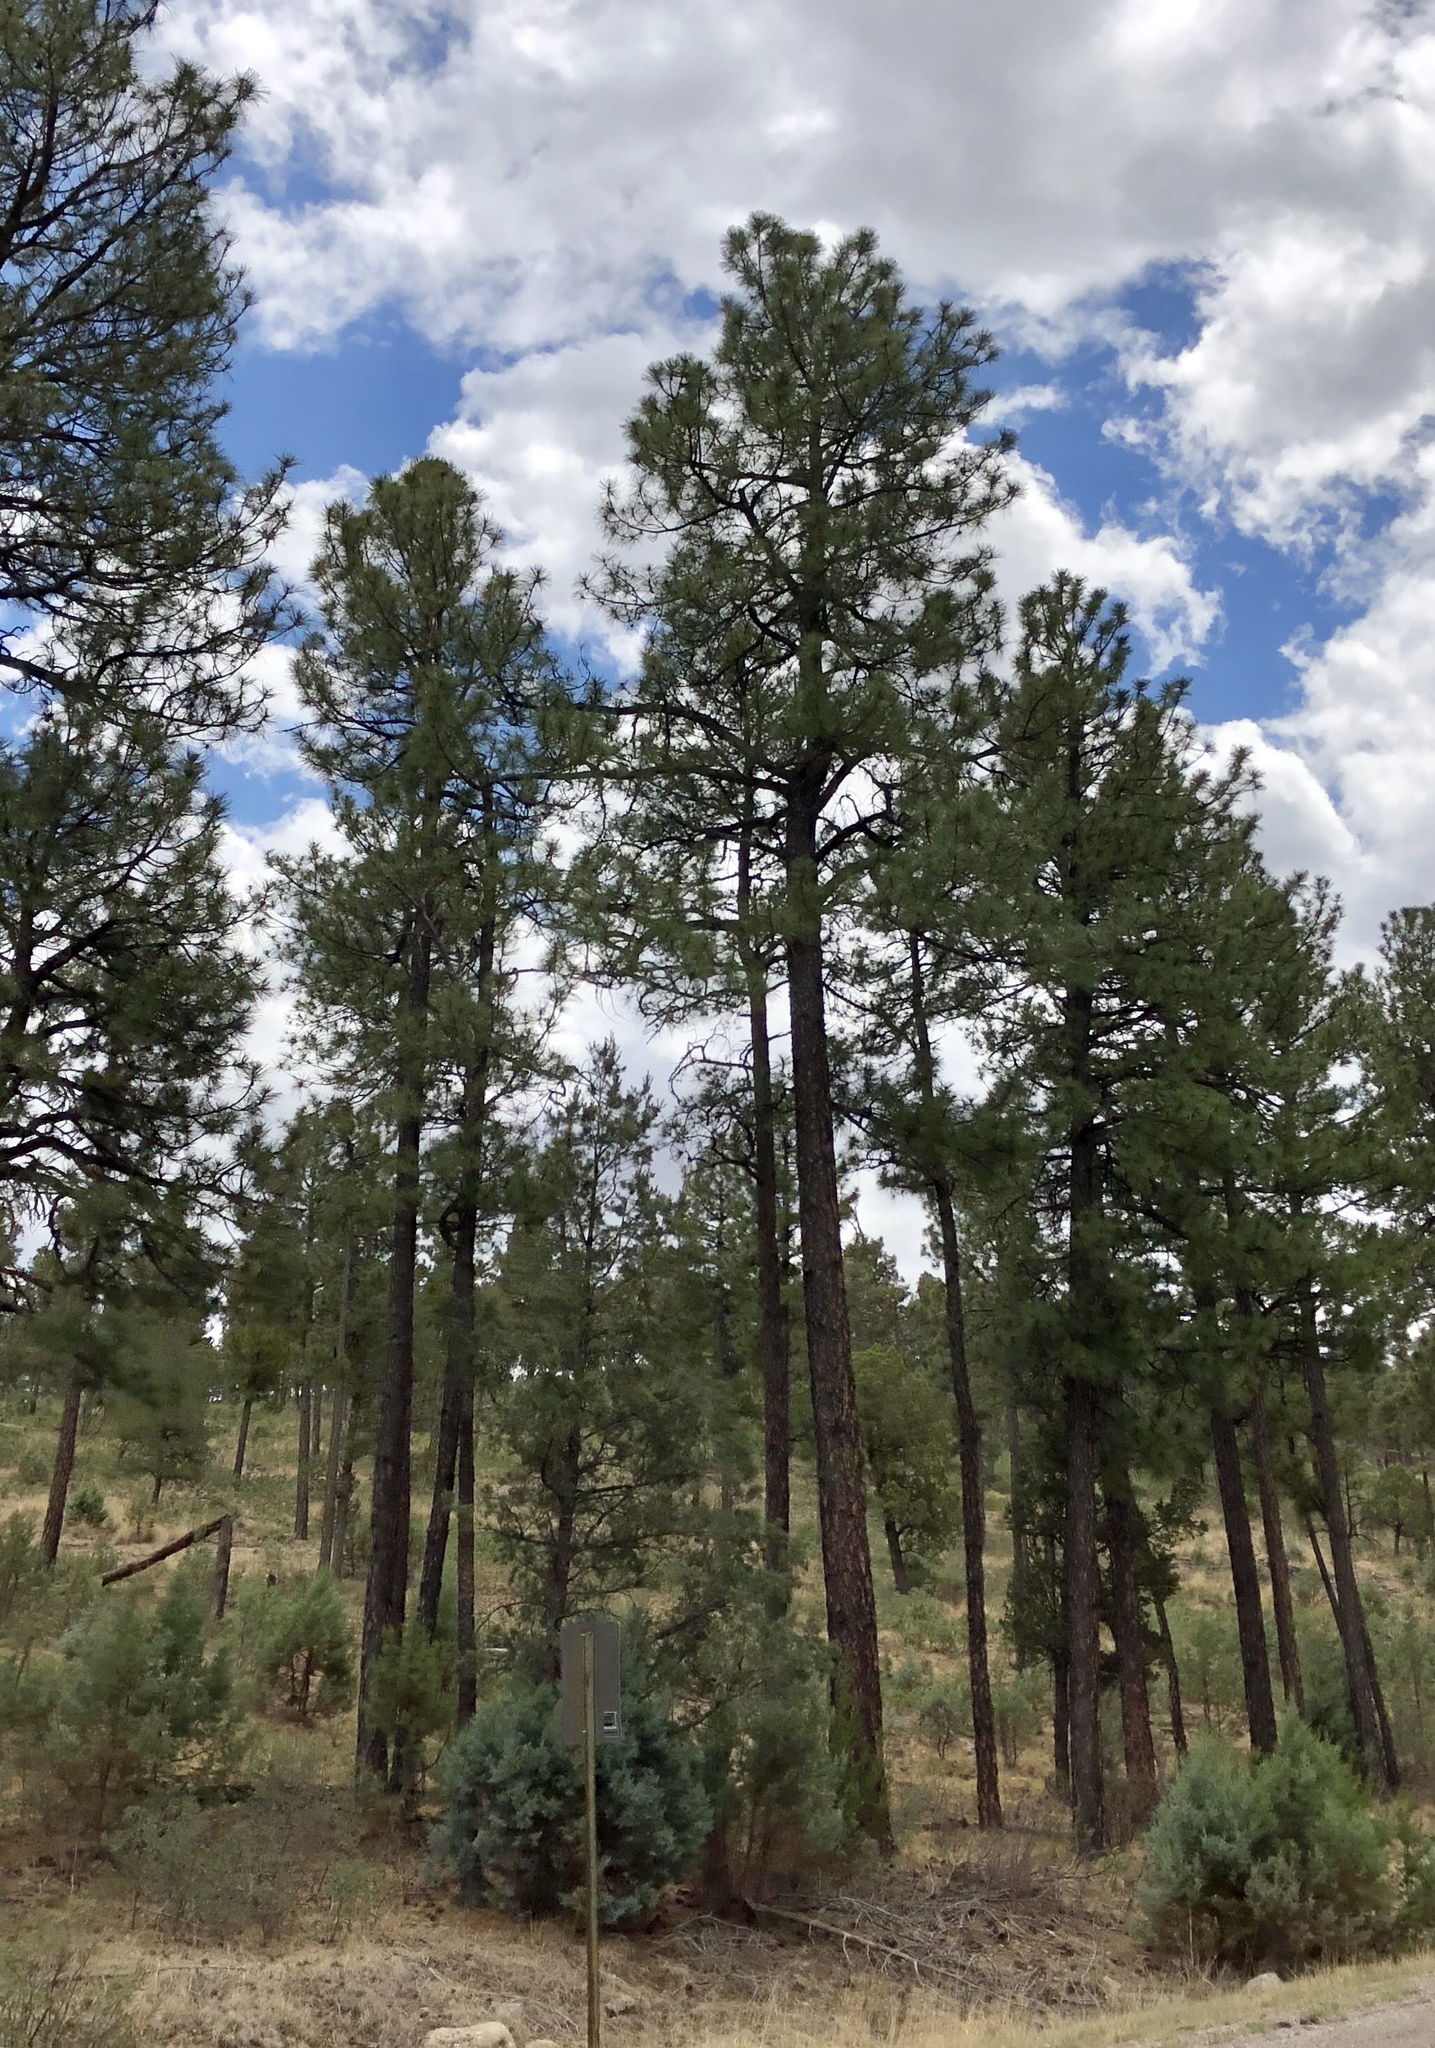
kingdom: Plantae
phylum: Tracheophyta
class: Pinopsida
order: Pinales
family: Pinaceae
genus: Pinus
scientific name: Pinus ponderosa
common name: Western yellow-pine
